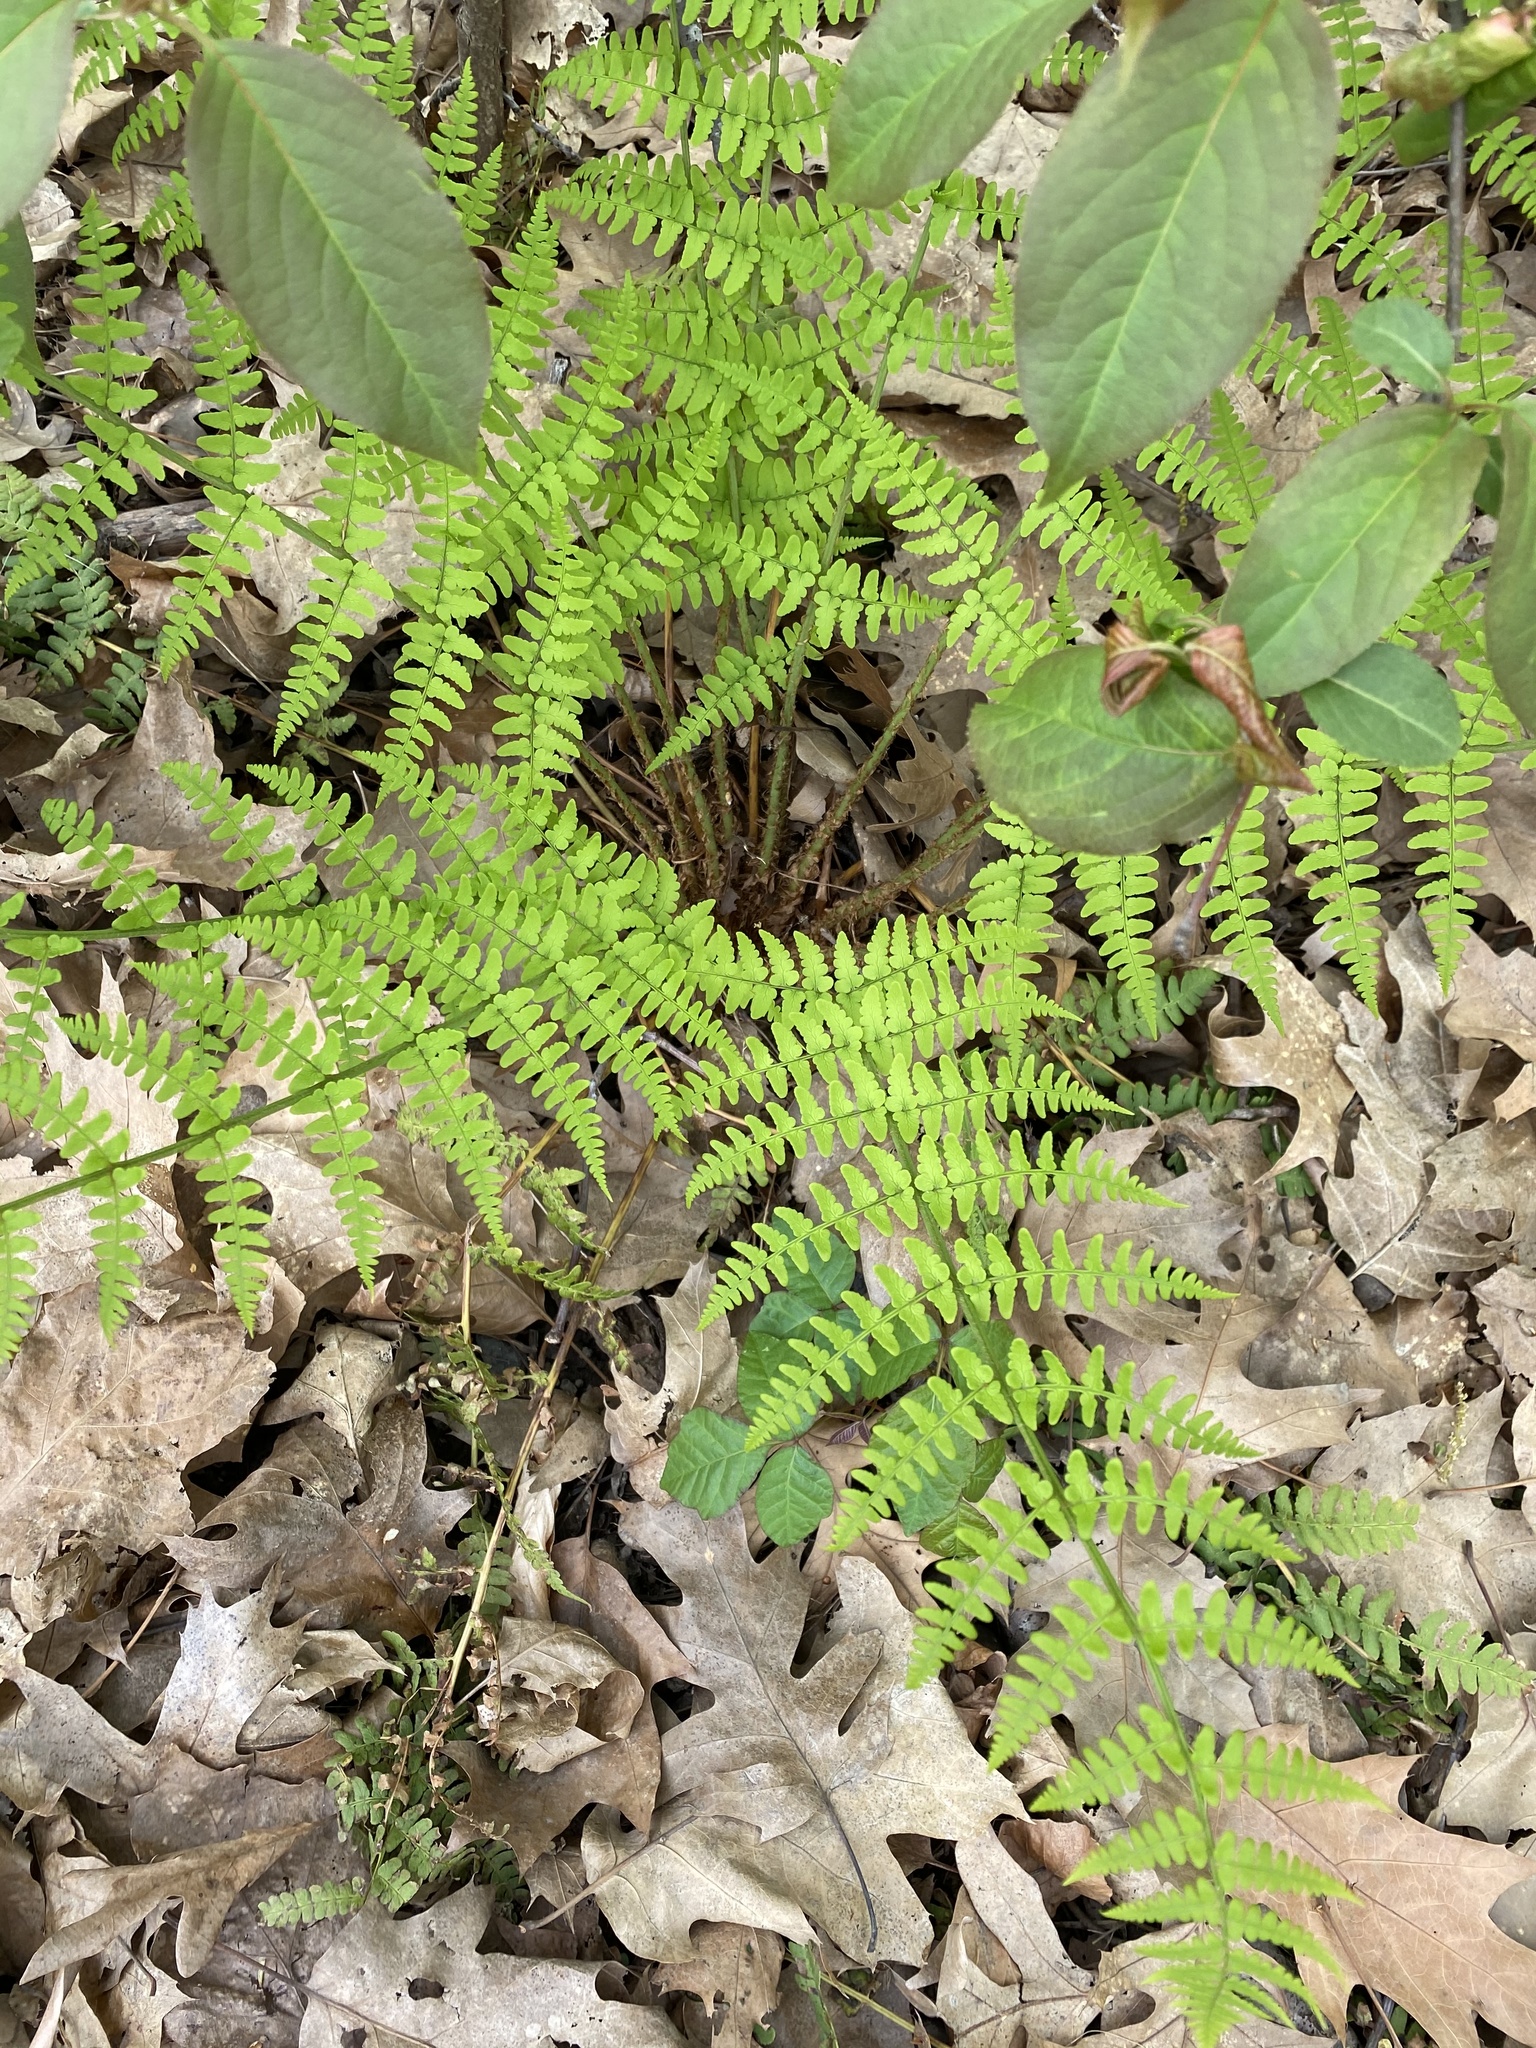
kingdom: Plantae
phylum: Tracheophyta
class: Polypodiopsida
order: Polypodiales
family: Dryopteridaceae
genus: Dryopteris
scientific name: Dryopteris marginalis
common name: Marginal wood fern
